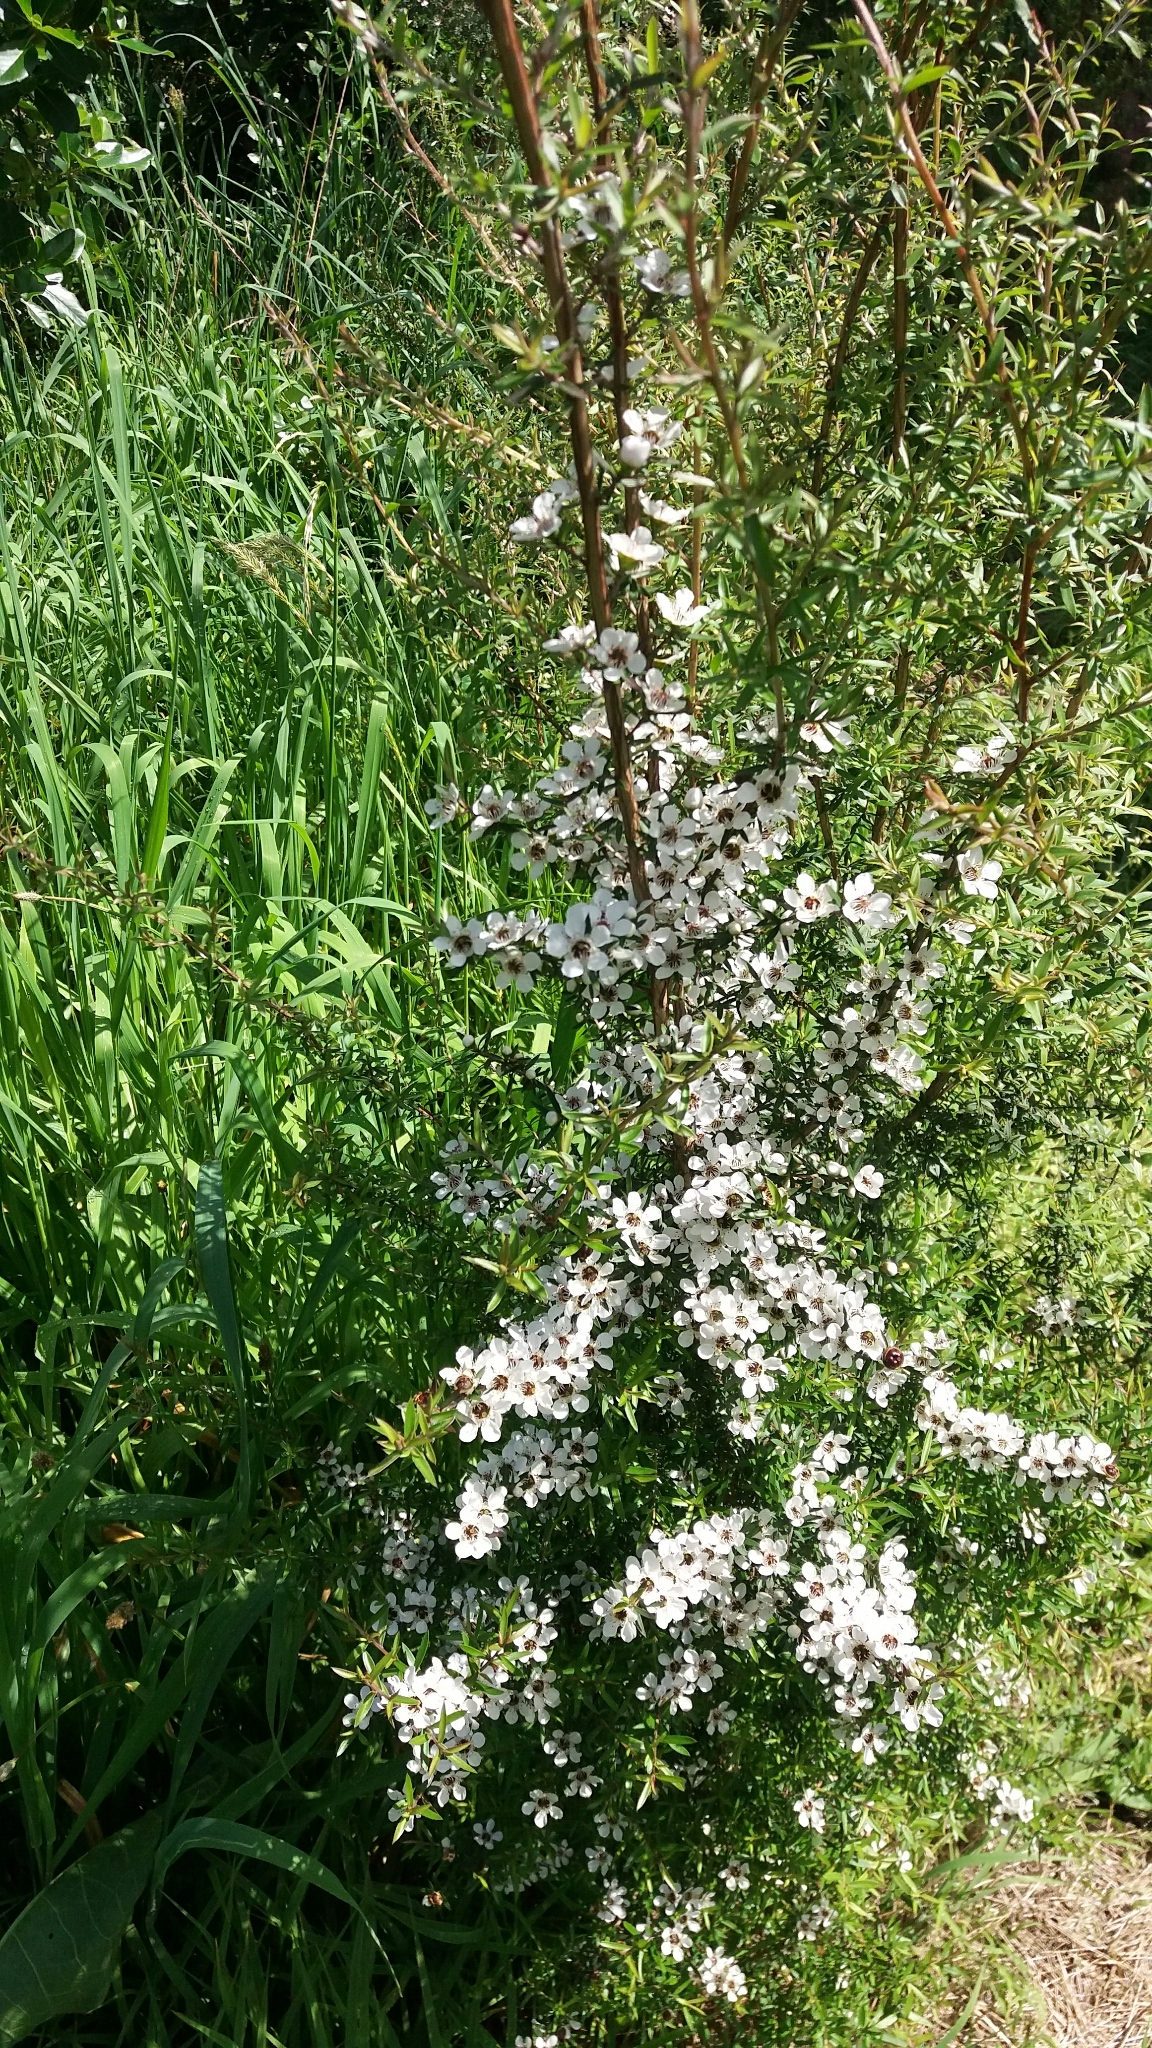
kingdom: Plantae
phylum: Tracheophyta
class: Magnoliopsida
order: Myrtales
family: Myrtaceae
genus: Leptospermum
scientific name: Leptospermum scoparium
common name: Broom tea-tree
